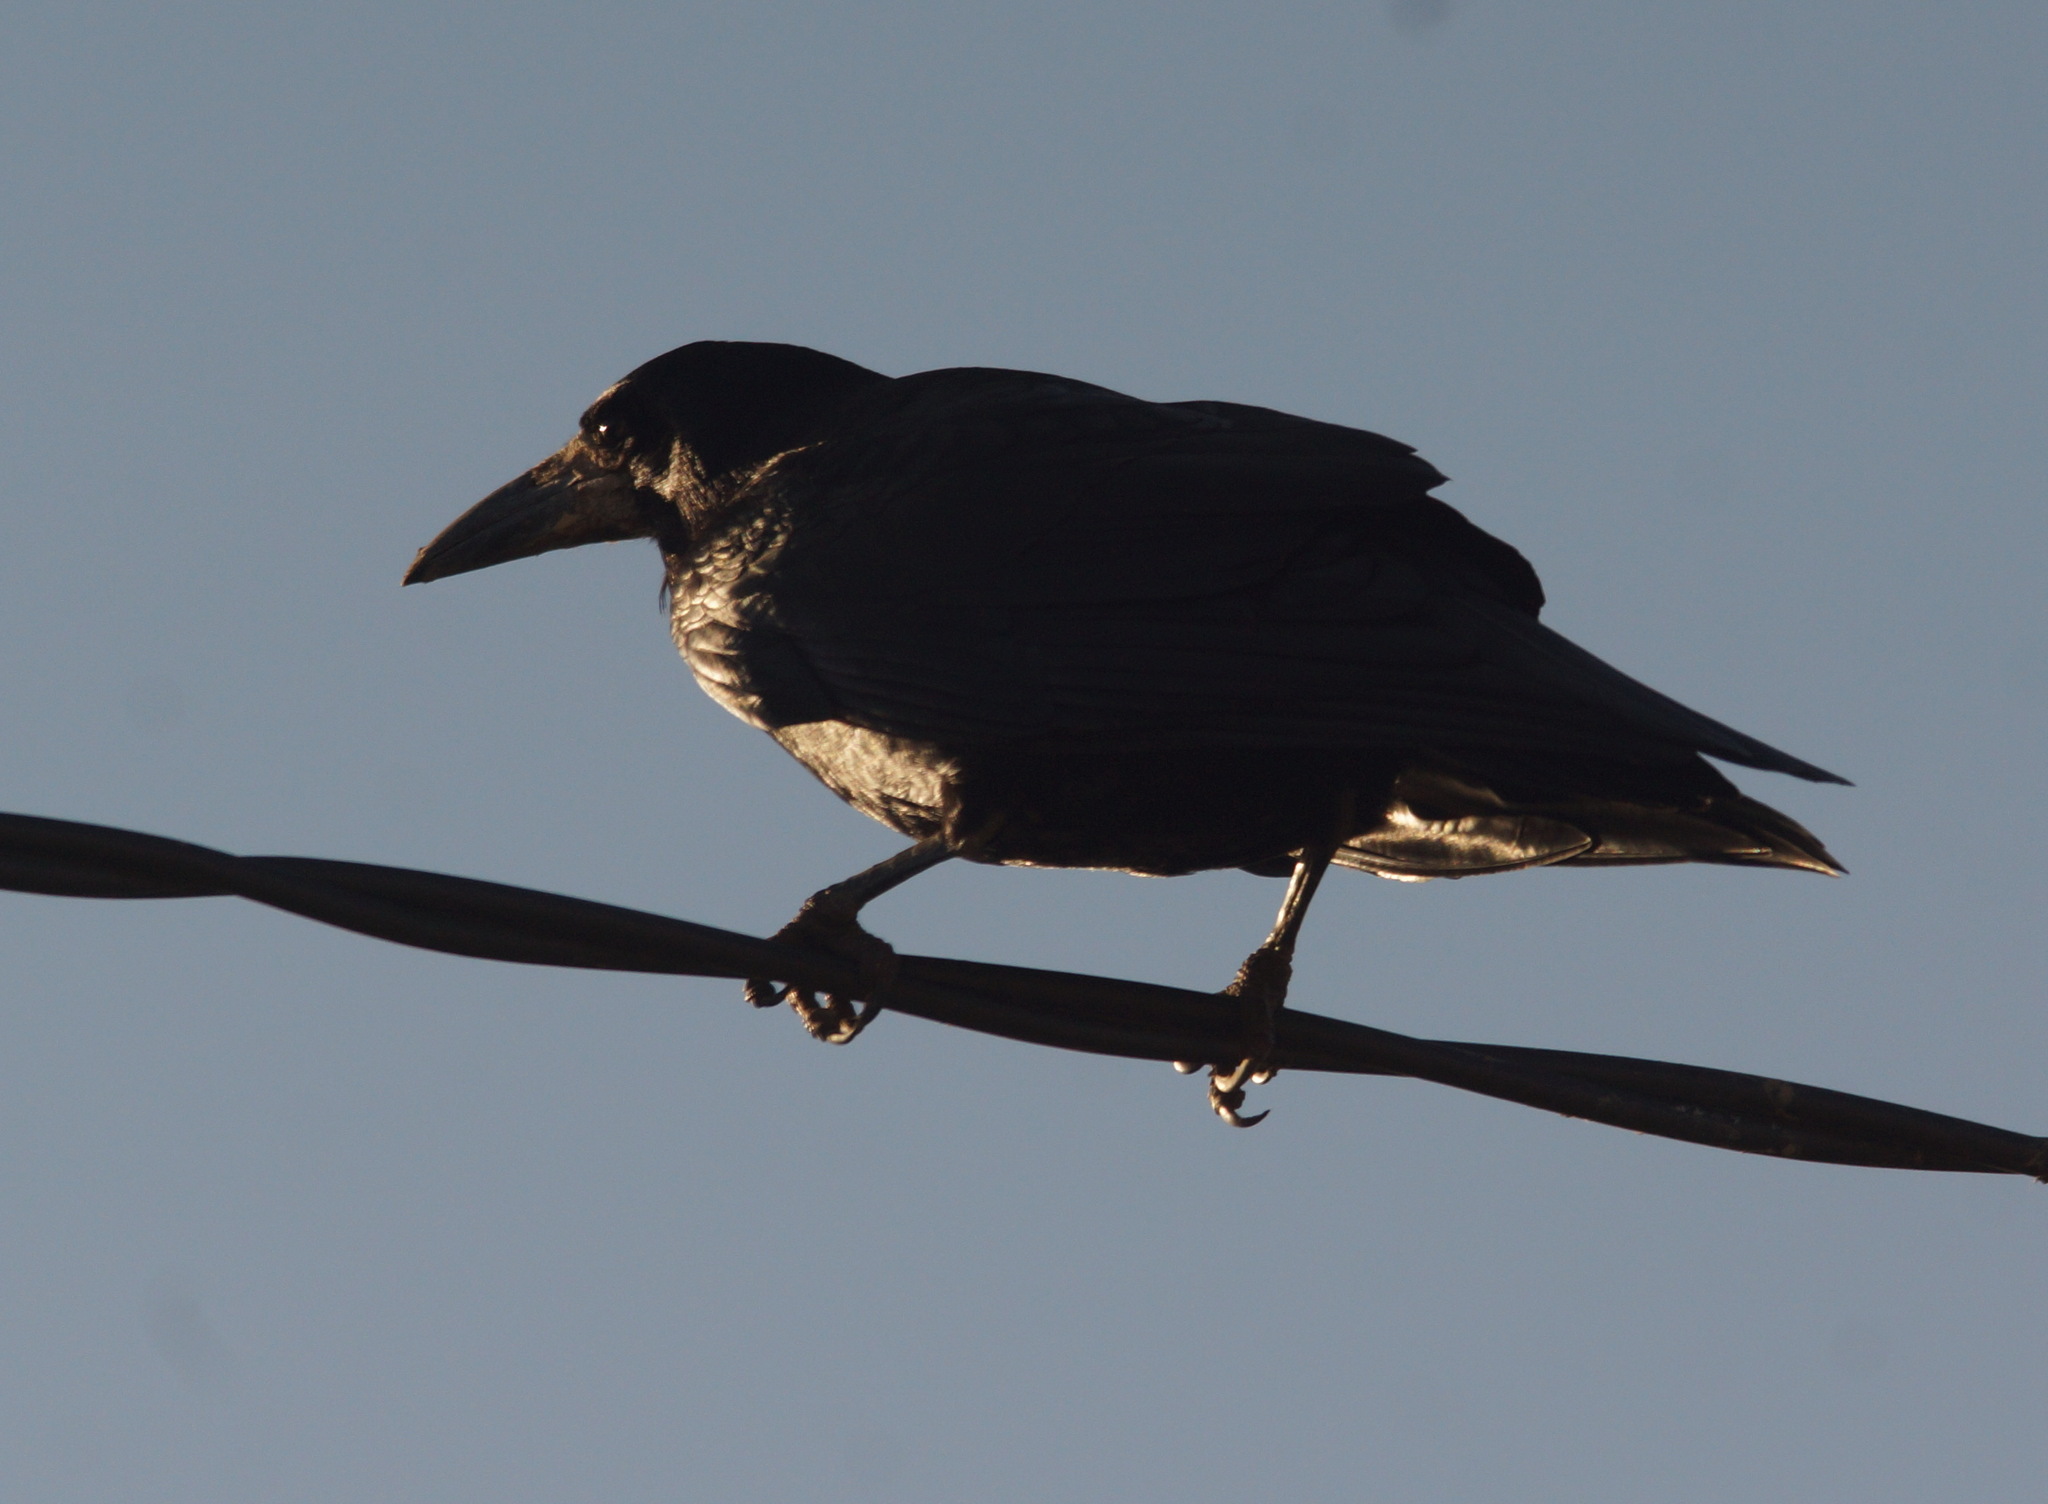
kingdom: Animalia
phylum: Chordata
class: Aves
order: Passeriformes
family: Corvidae
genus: Corvus
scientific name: Corvus frugilegus
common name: Rook
